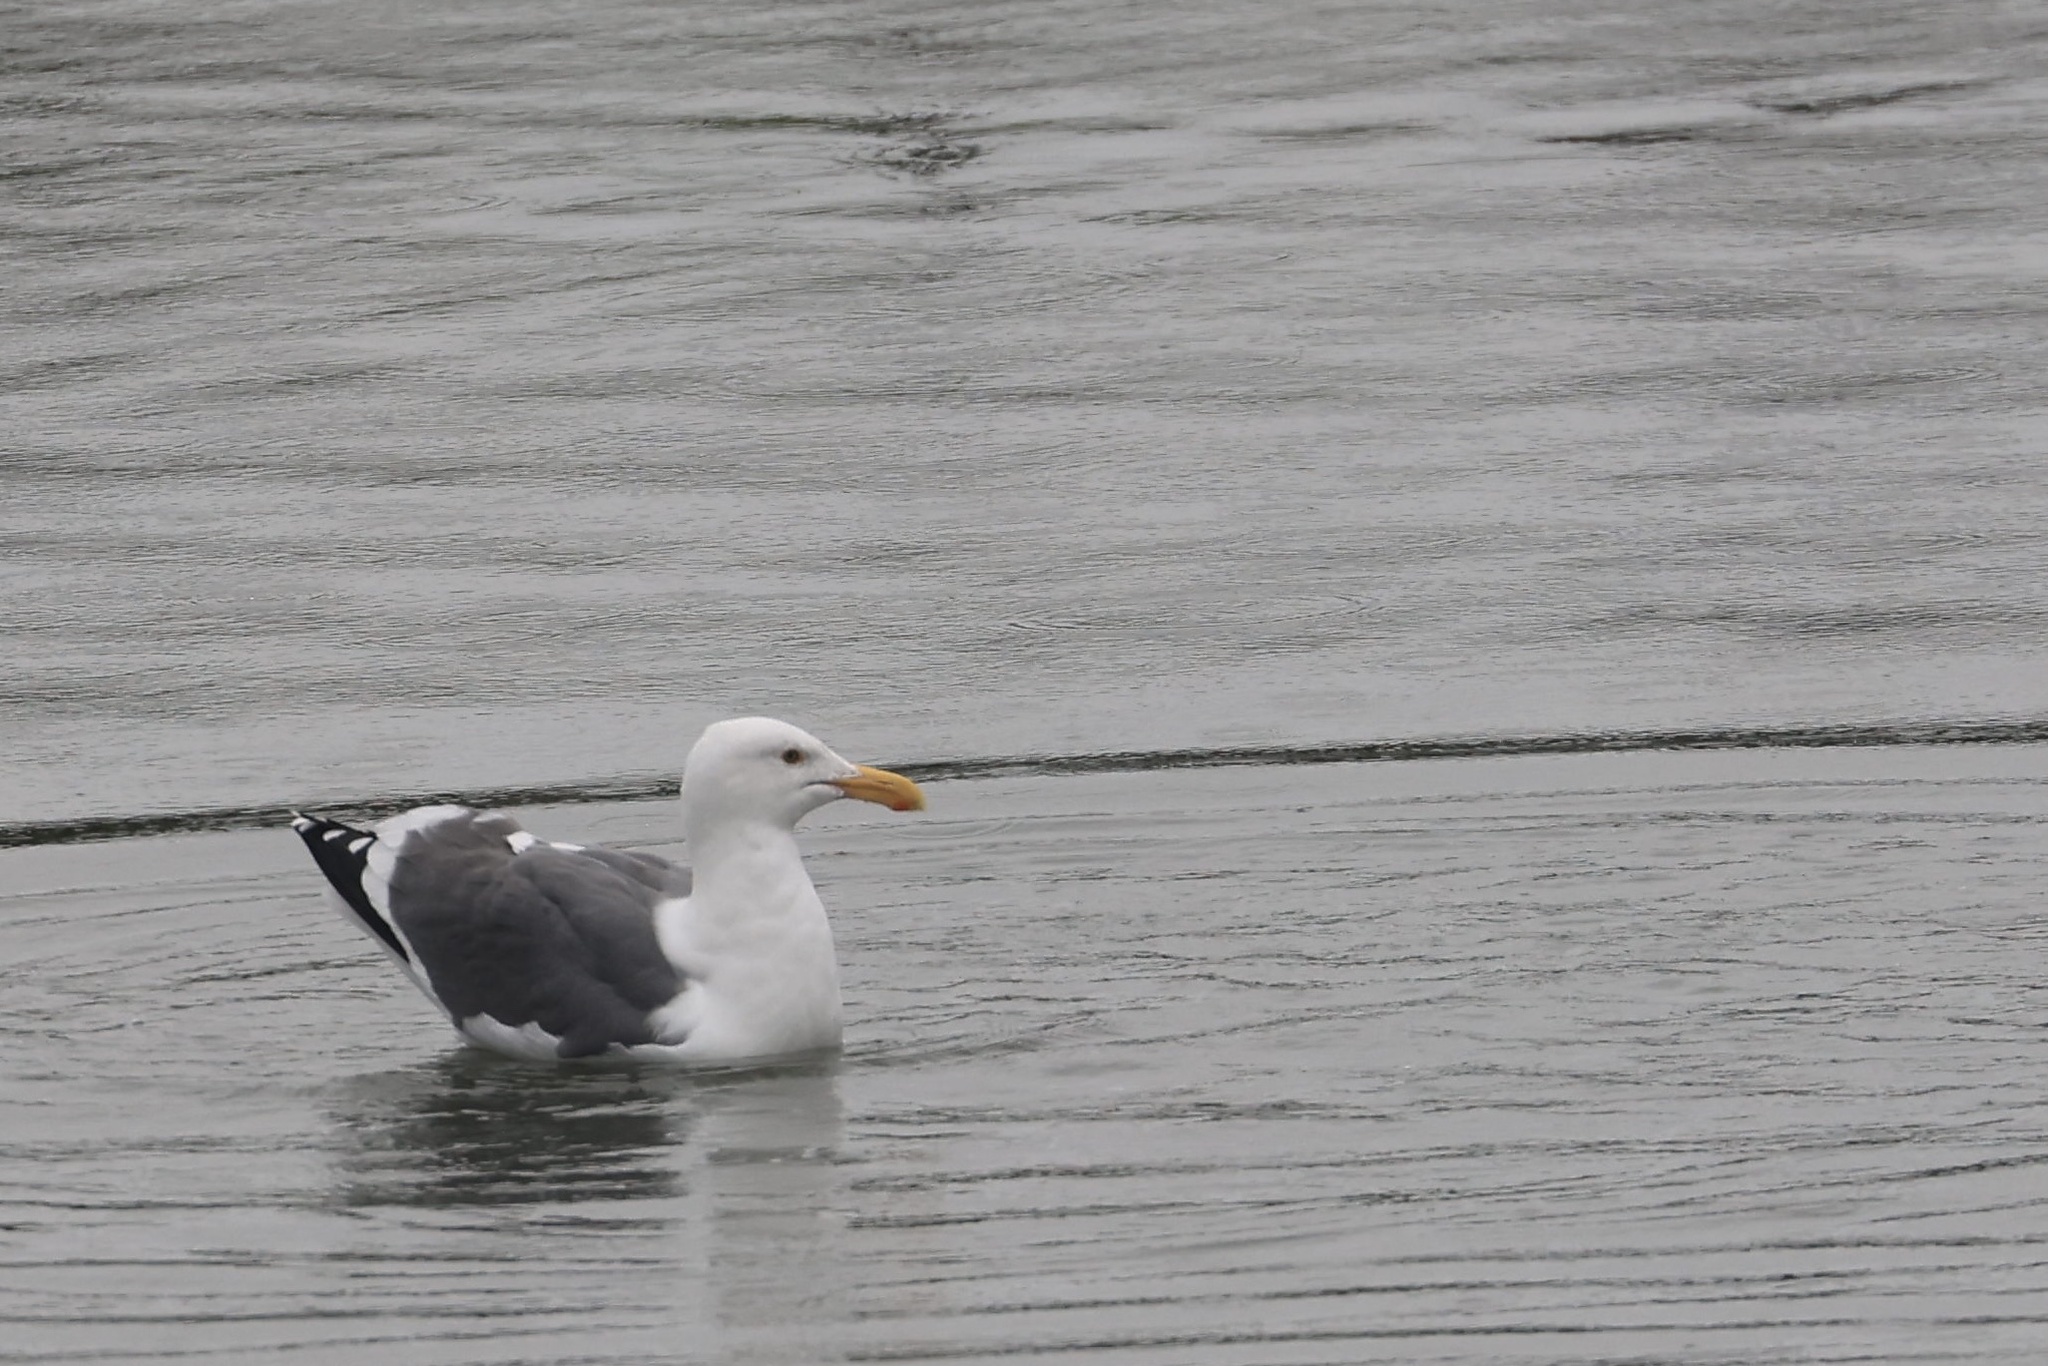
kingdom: Animalia
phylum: Chordata
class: Aves
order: Charadriiformes
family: Laridae
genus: Larus
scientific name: Larus occidentalis
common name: Western gull
